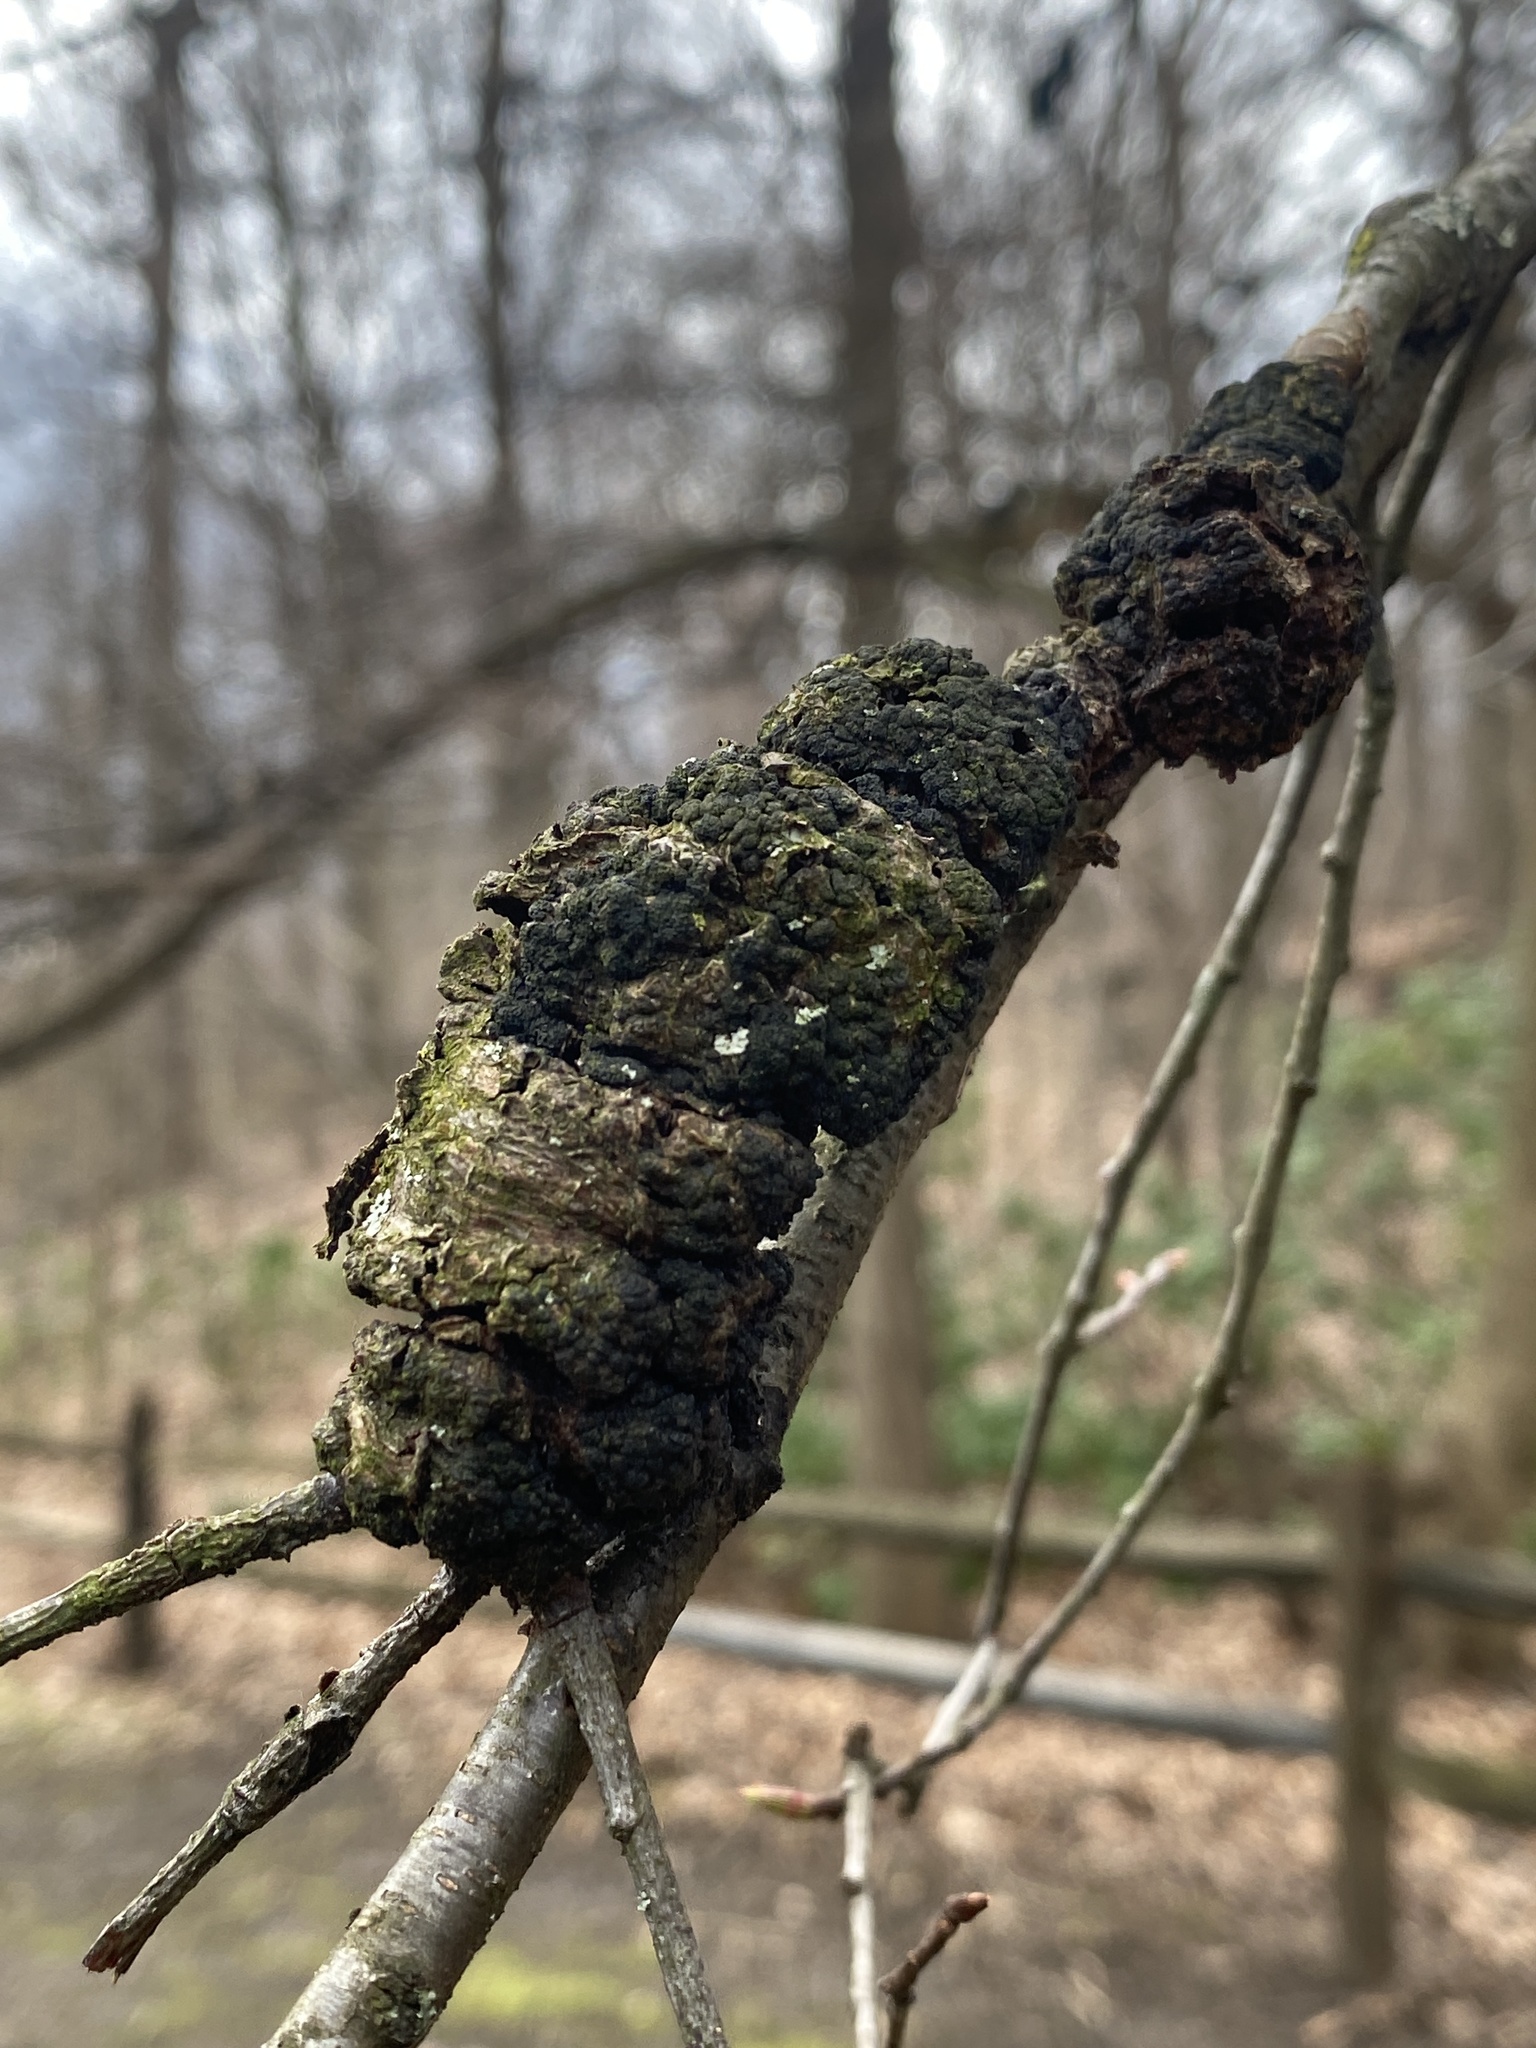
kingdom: Fungi
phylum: Ascomycota
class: Dothideomycetes
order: Venturiales
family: Venturiaceae
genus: Apiosporina
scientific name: Apiosporina morbosa
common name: Black knot
